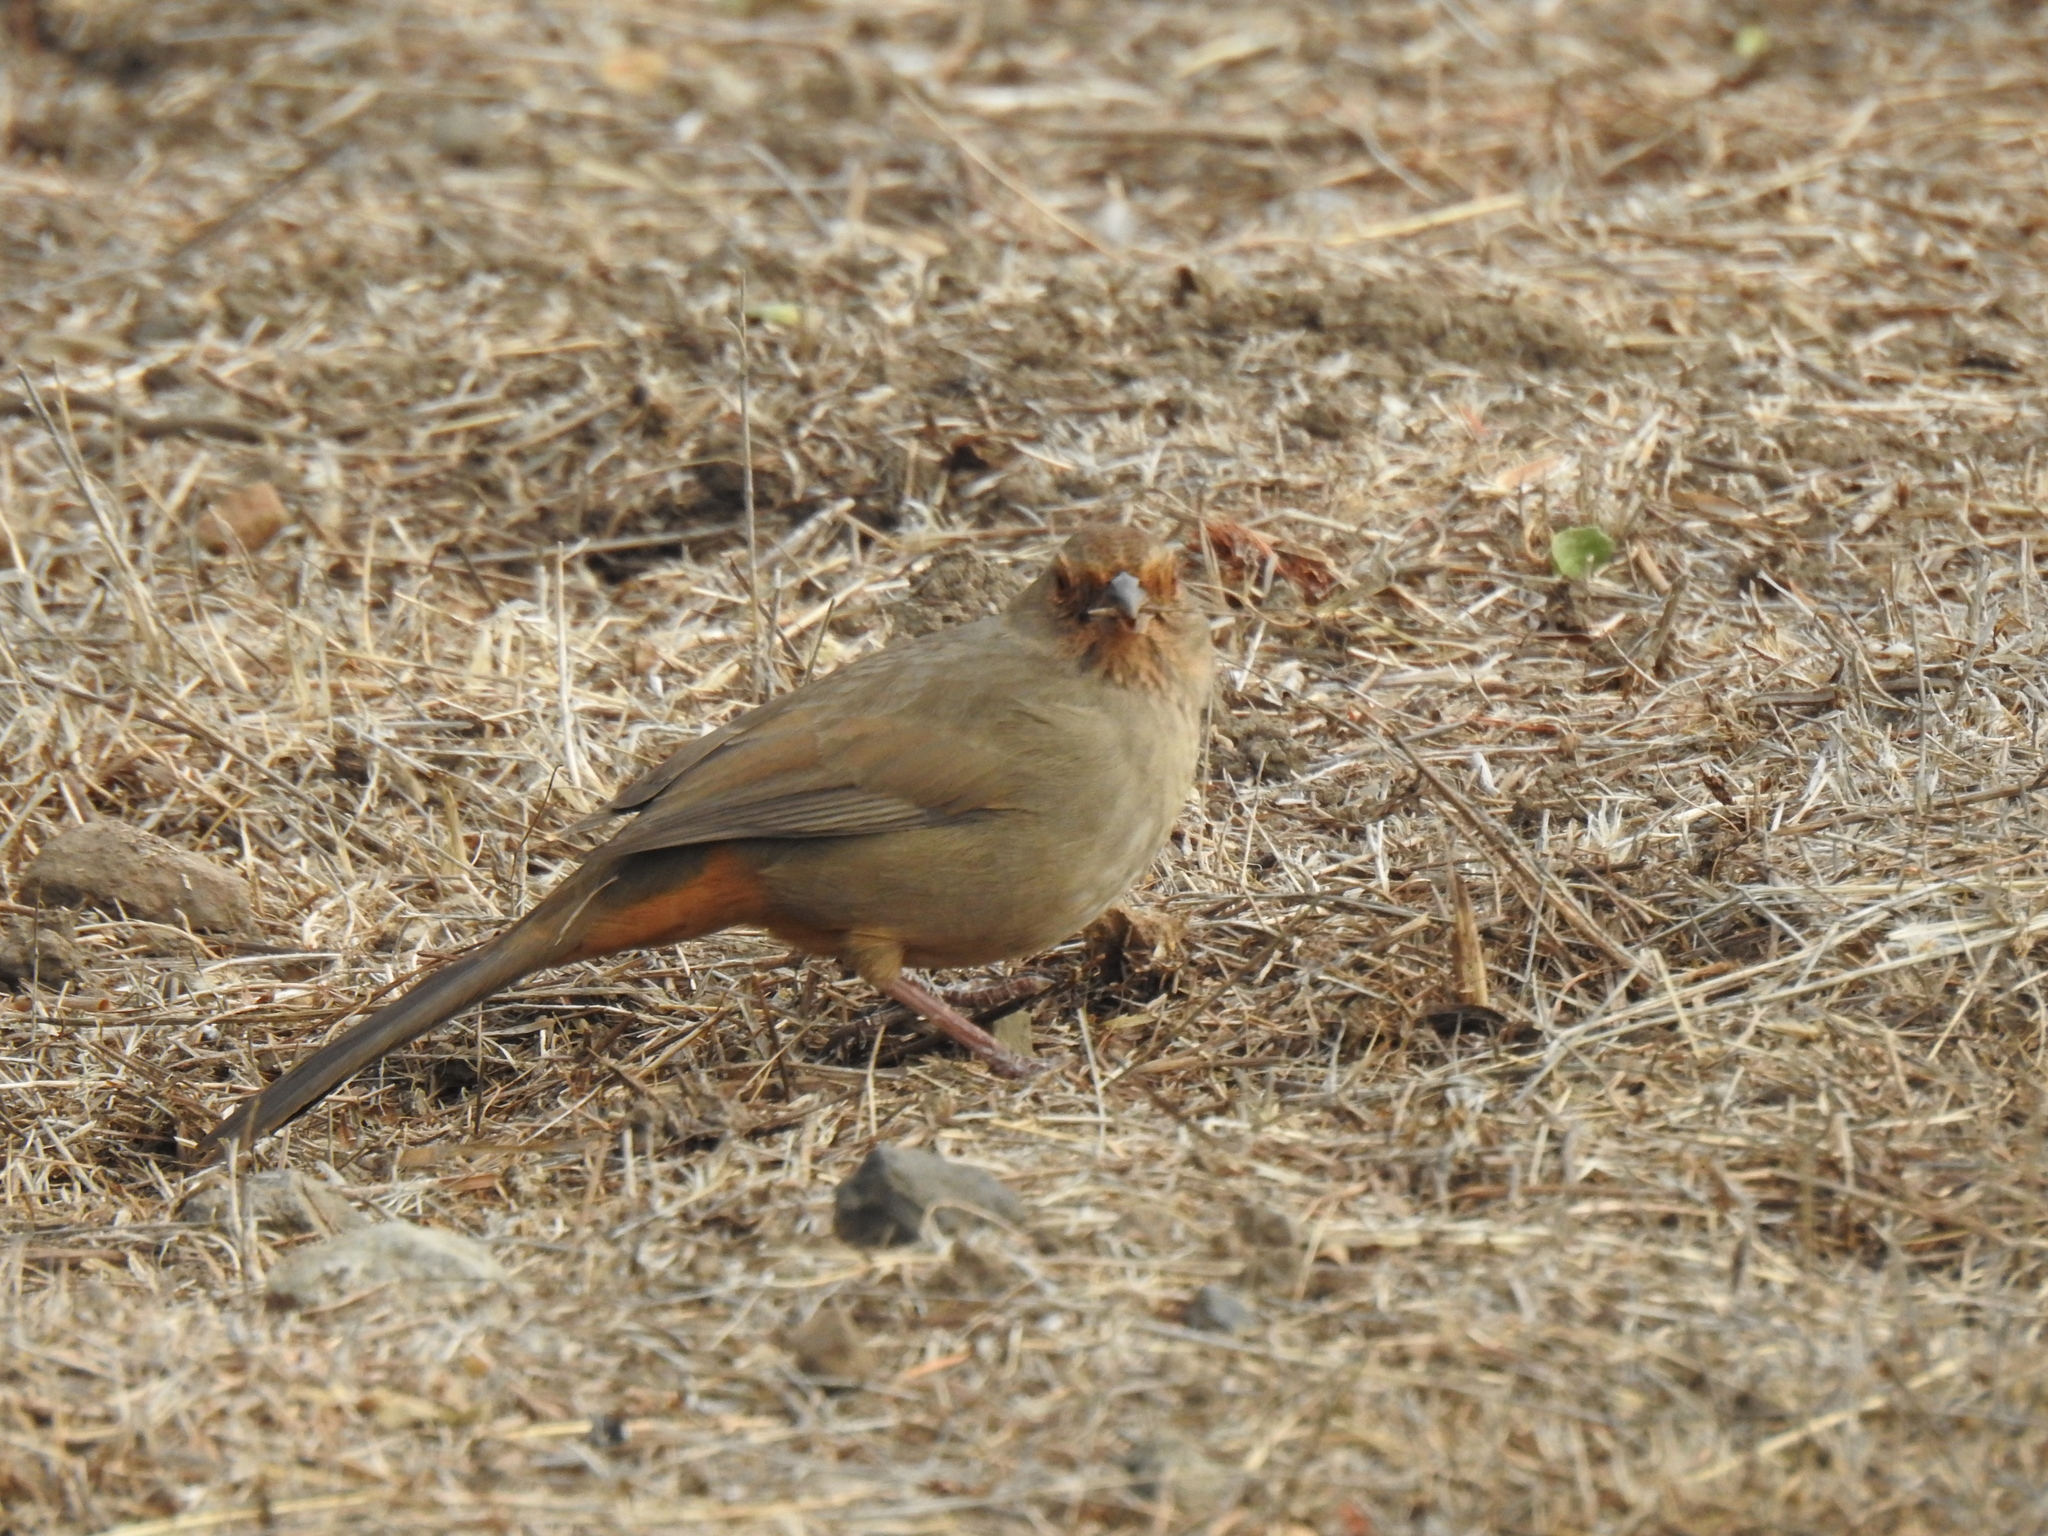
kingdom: Animalia
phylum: Chordata
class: Aves
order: Passeriformes
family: Passerellidae
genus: Melozone
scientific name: Melozone crissalis
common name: California towhee
